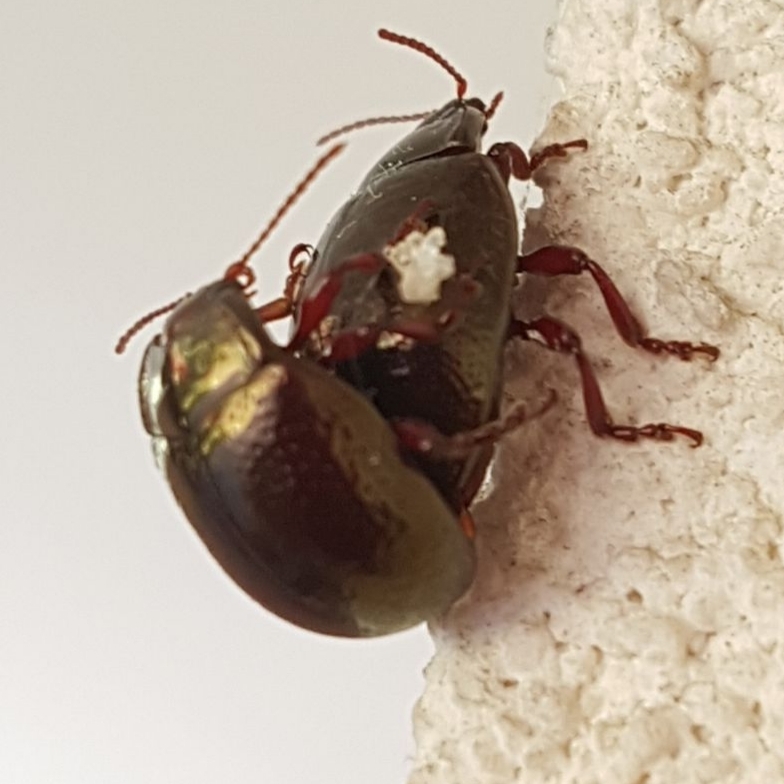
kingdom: Animalia
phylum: Arthropoda
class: Insecta
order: Coleoptera
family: Chrysomelidae
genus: Chrysolina
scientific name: Chrysolina bankii
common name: Leaf beetle
